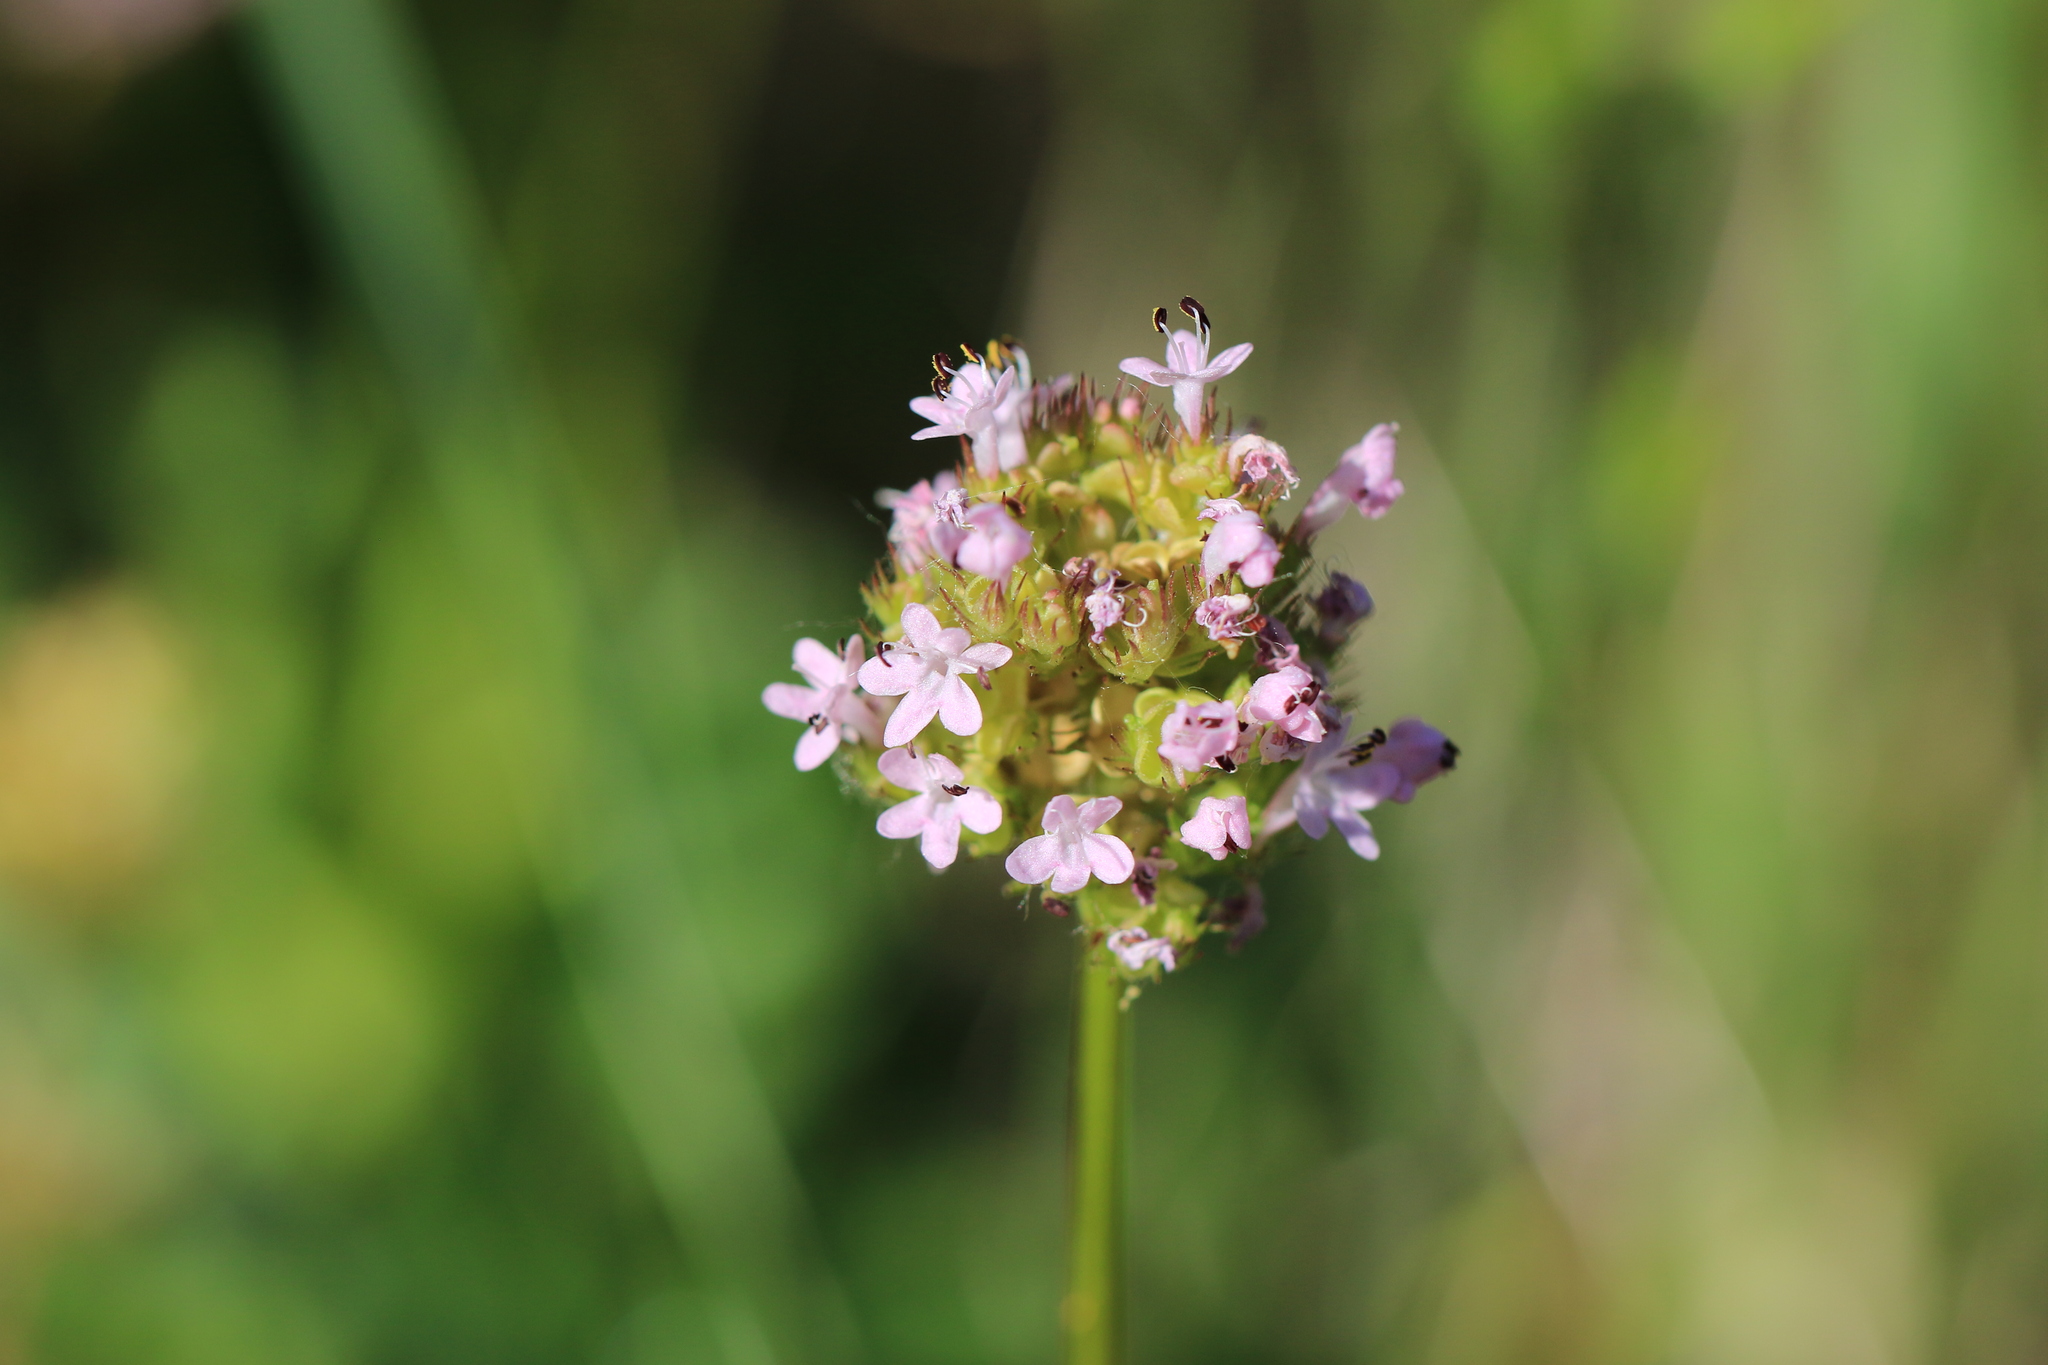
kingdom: Plantae
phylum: Tracheophyta
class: Magnoliopsida
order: Dipsacales
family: Caprifoliaceae
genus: Plectritis
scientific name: Plectritis congesta
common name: Pink plectritis
